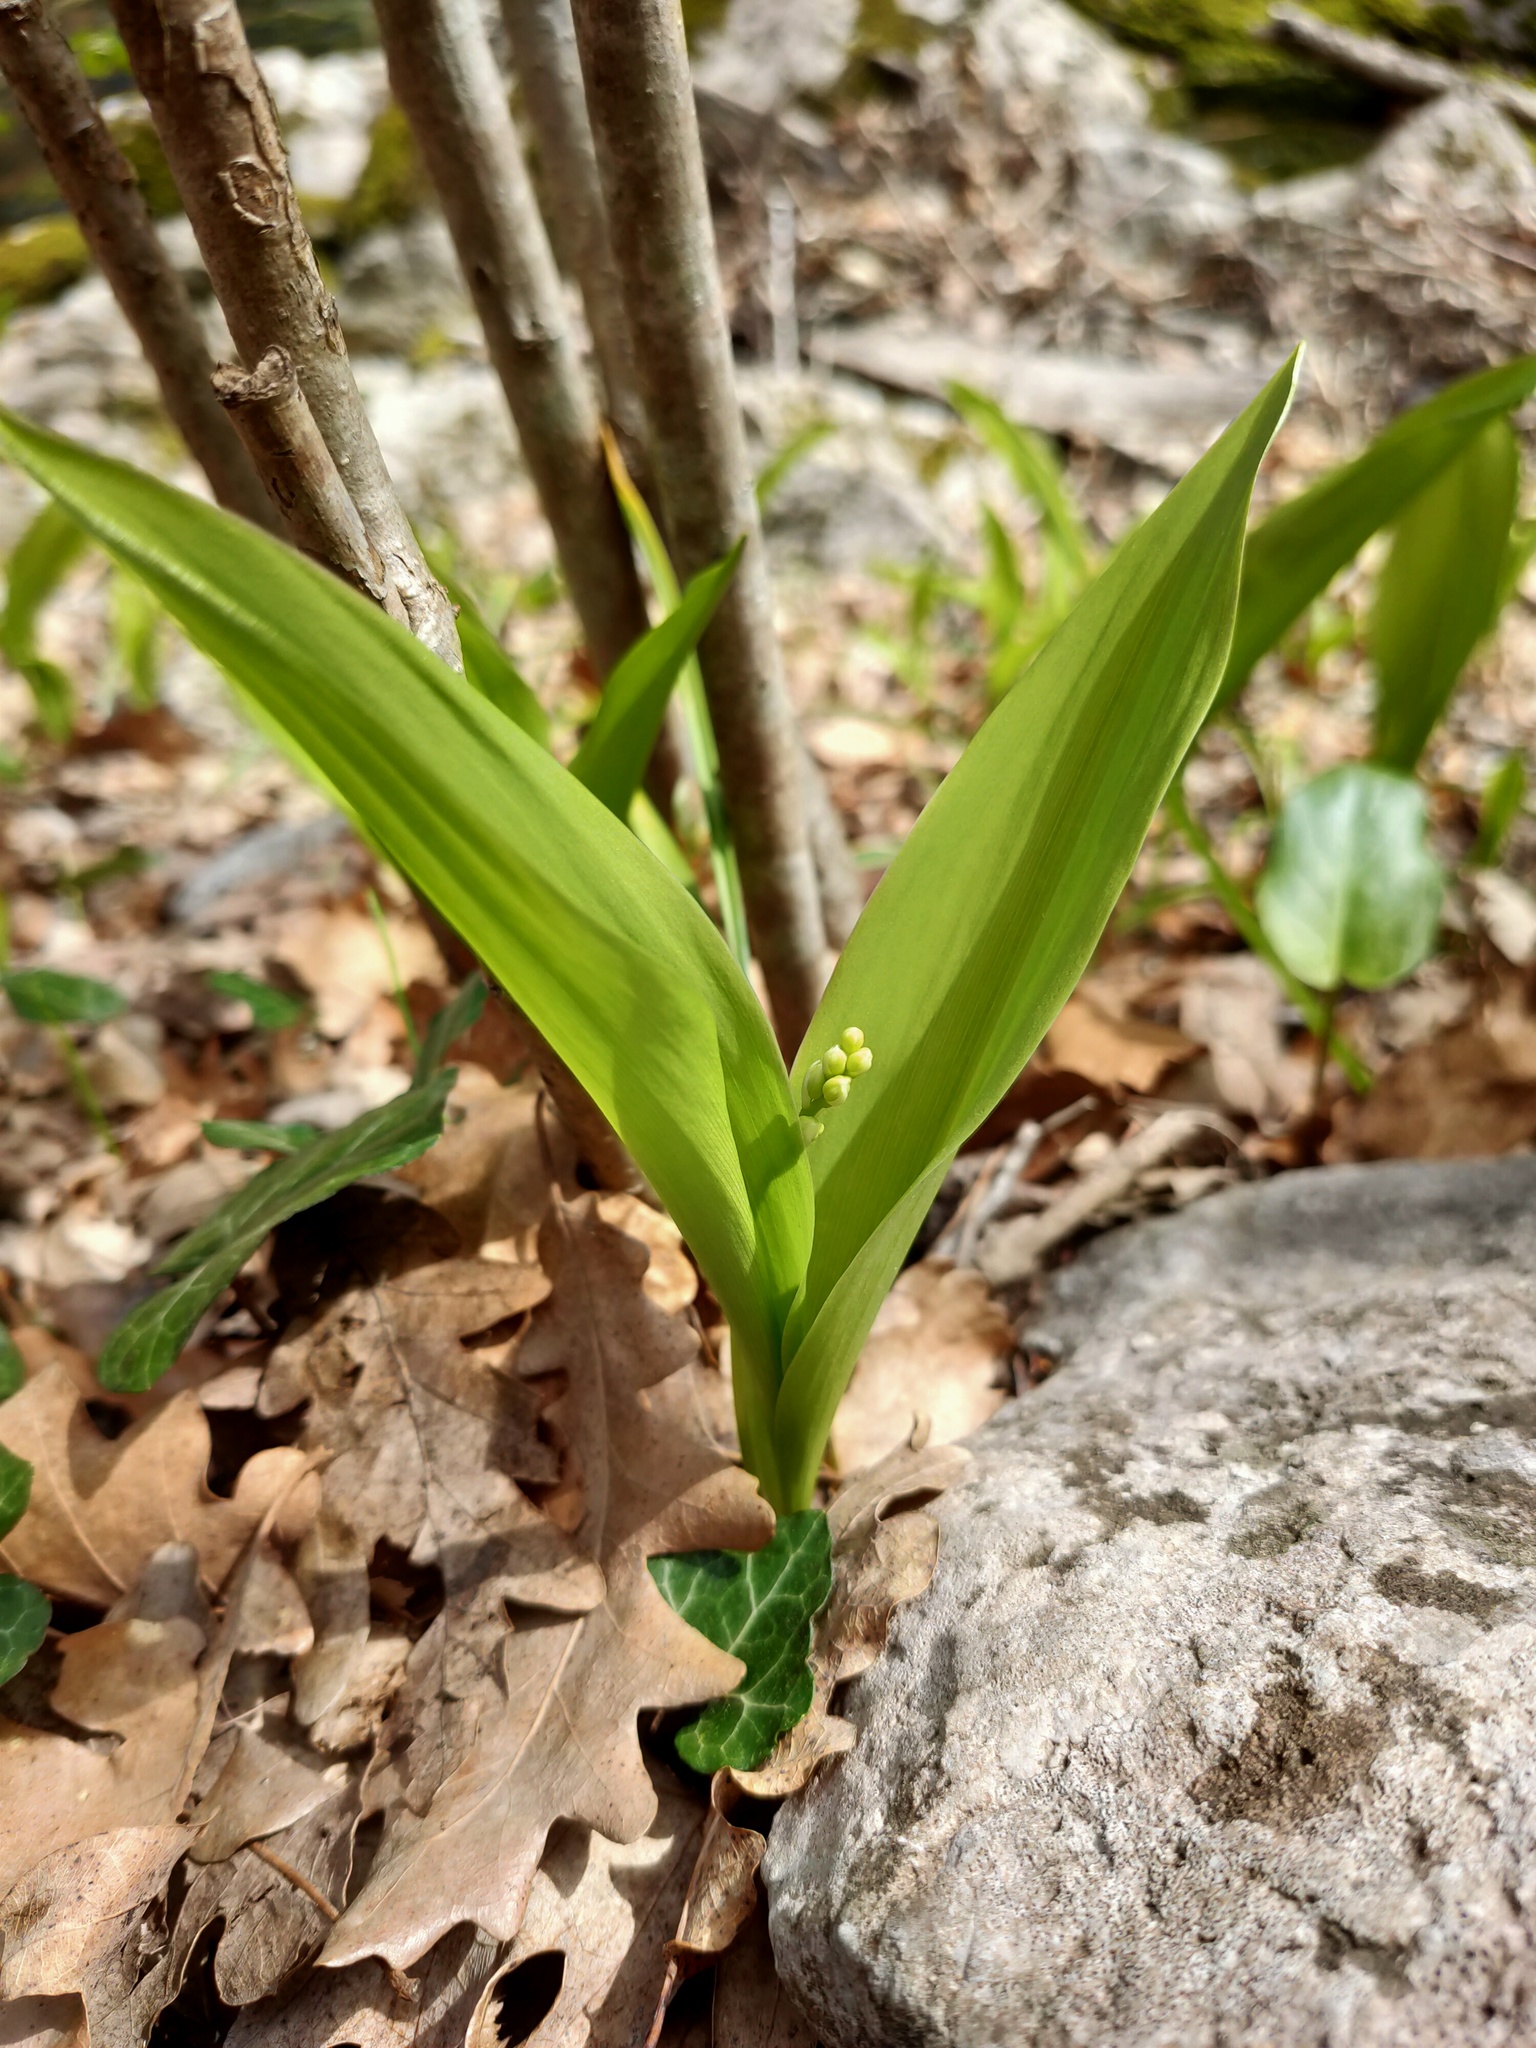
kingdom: Plantae
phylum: Tracheophyta
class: Liliopsida
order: Asparagales
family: Asparagaceae
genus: Convallaria
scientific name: Convallaria majalis
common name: Lily-of-the-valley
